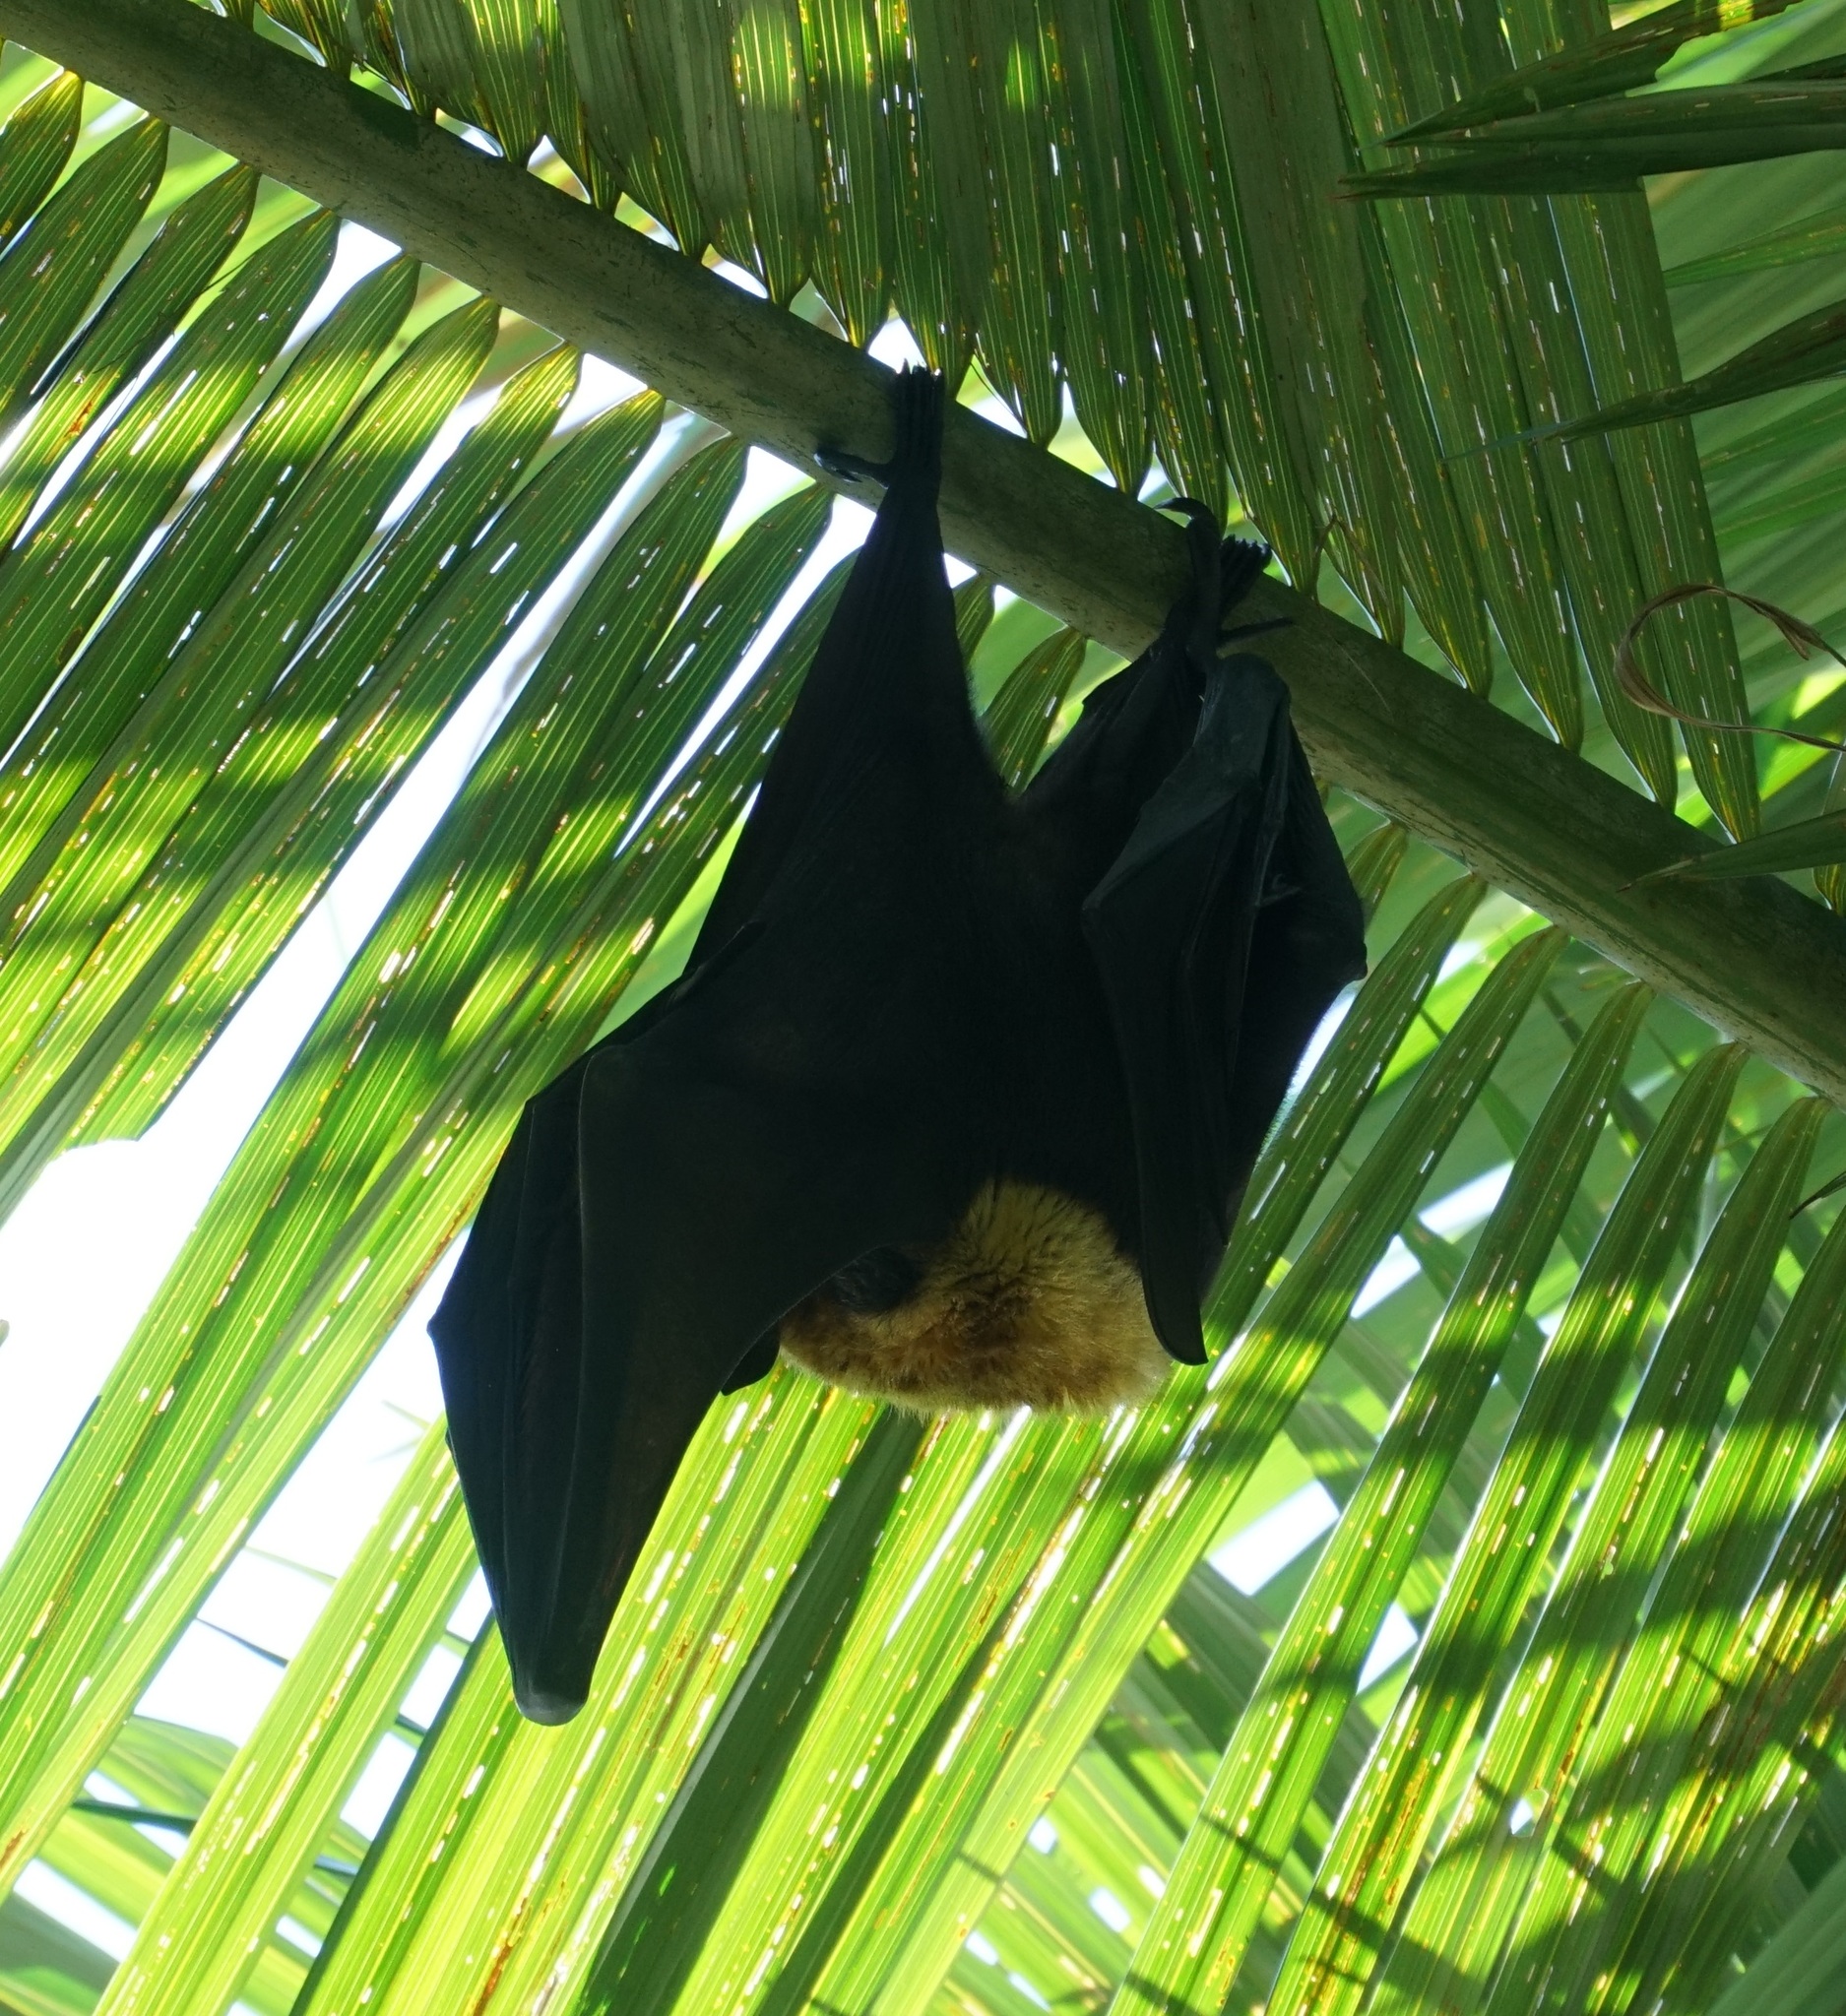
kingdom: Animalia
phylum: Chordata
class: Mammalia
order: Chiroptera
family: Pteropodidae
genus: Pteropus
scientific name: Pteropus conspicillatus
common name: Spectacled flying fox
